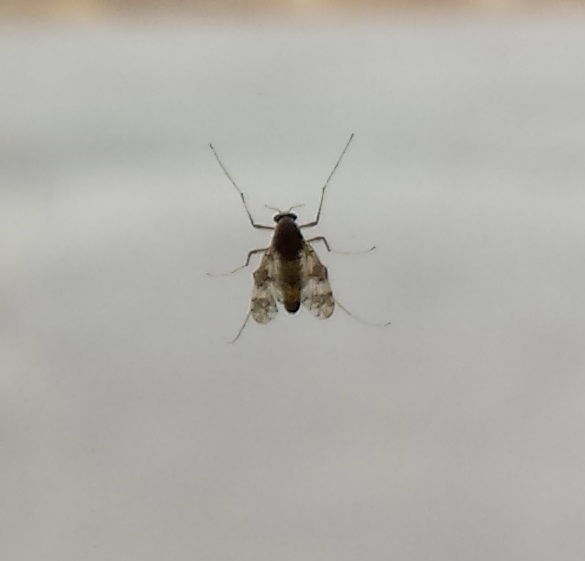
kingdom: Animalia
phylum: Arthropoda
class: Insecta
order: Diptera
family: Chironomidae
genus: Psectrotanypus
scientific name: Psectrotanypus dyari
